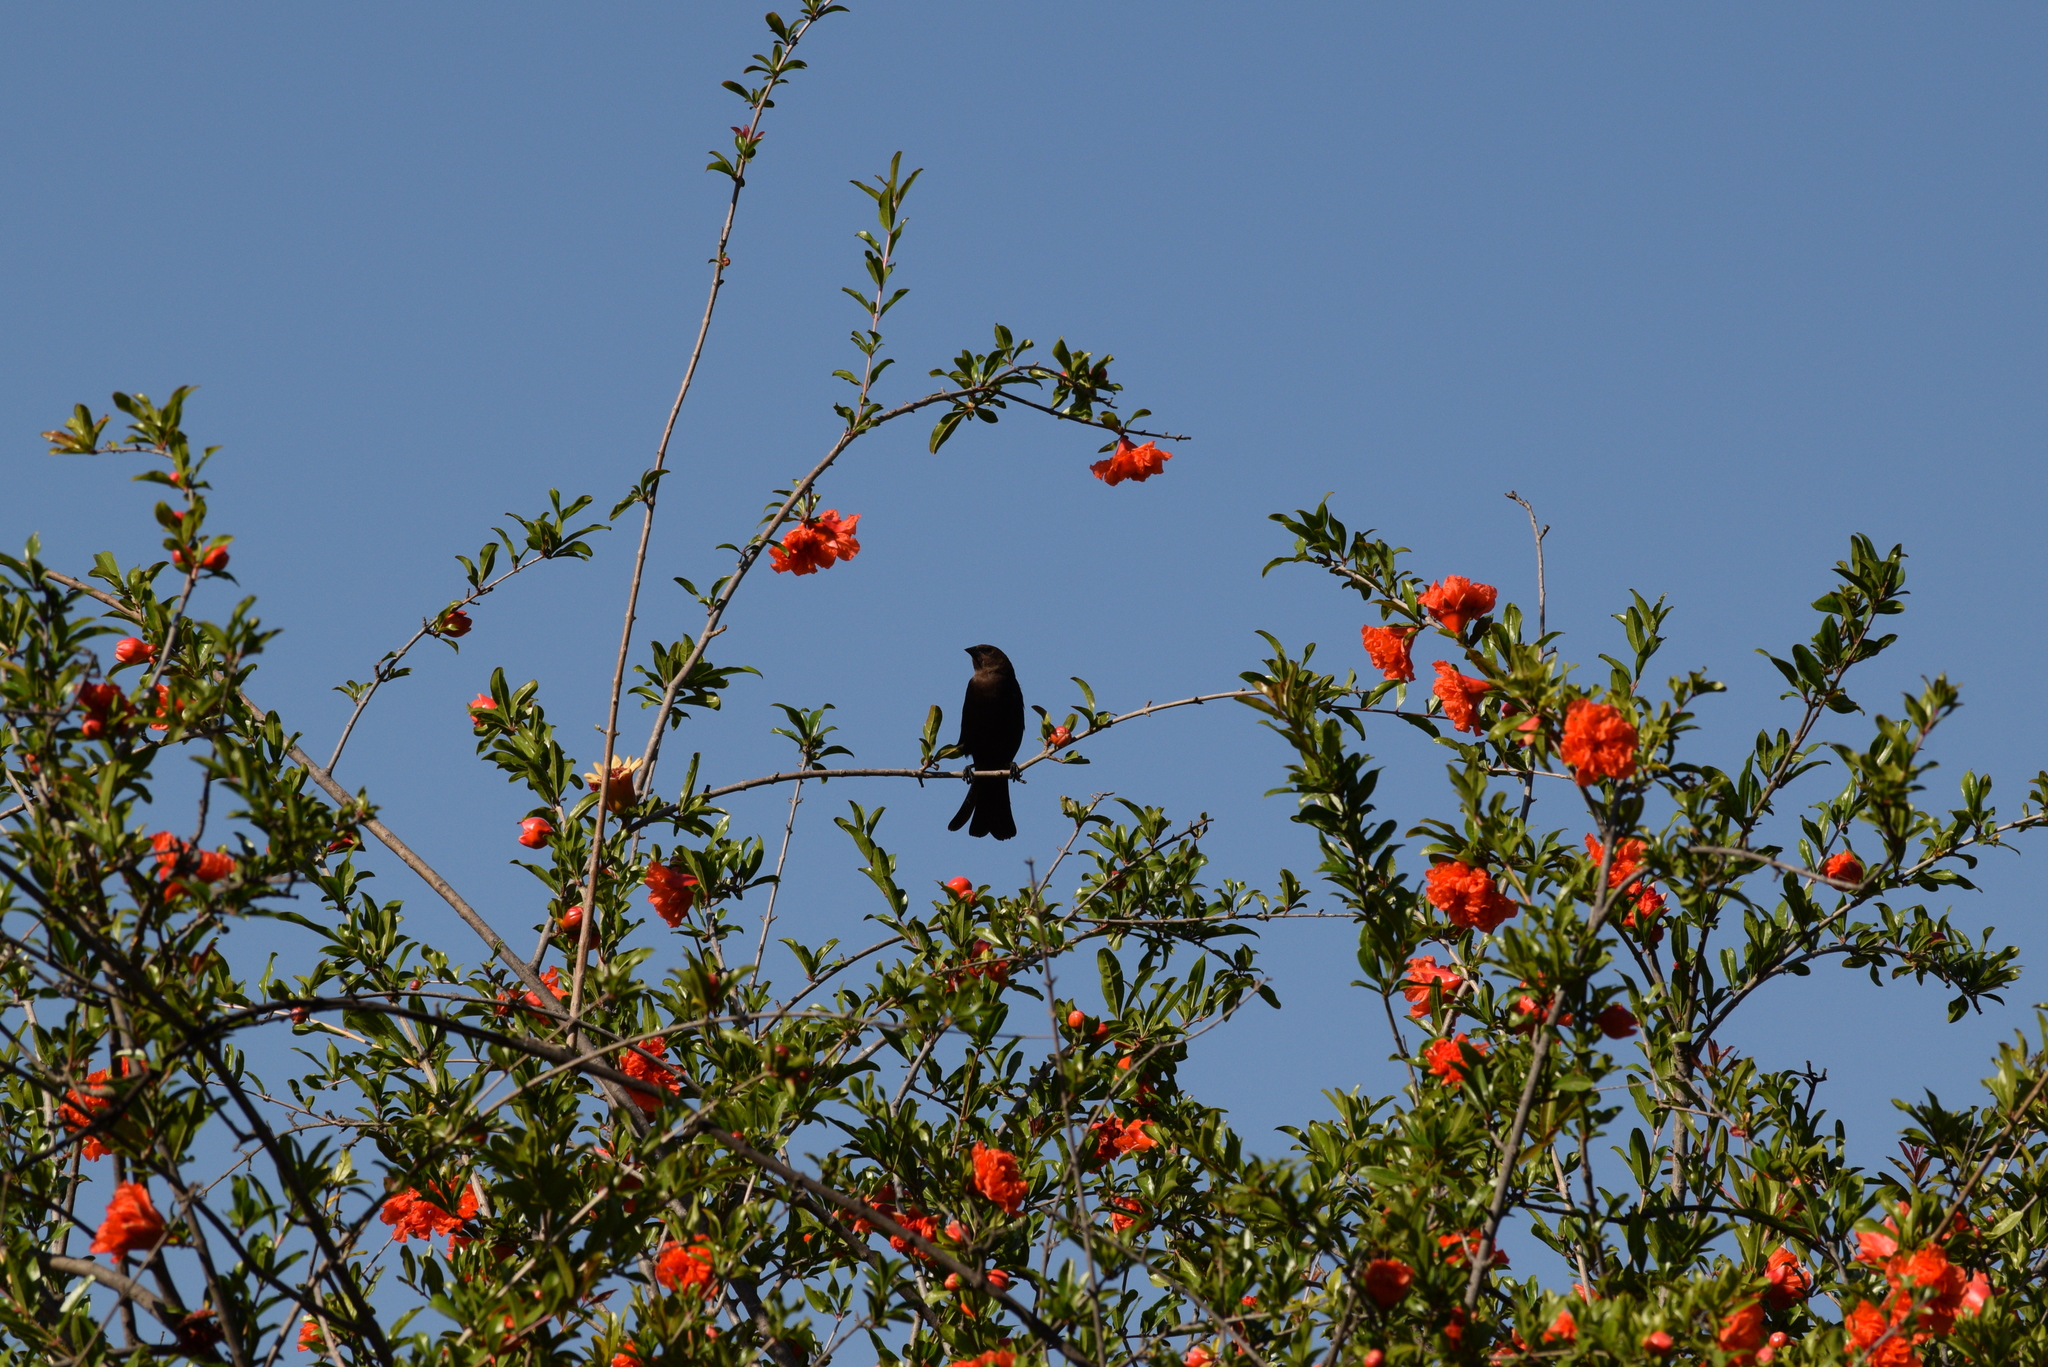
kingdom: Animalia
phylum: Chordata
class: Aves
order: Passeriformes
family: Icteridae
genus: Molothrus
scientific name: Molothrus ater
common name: Brown-headed cowbird
